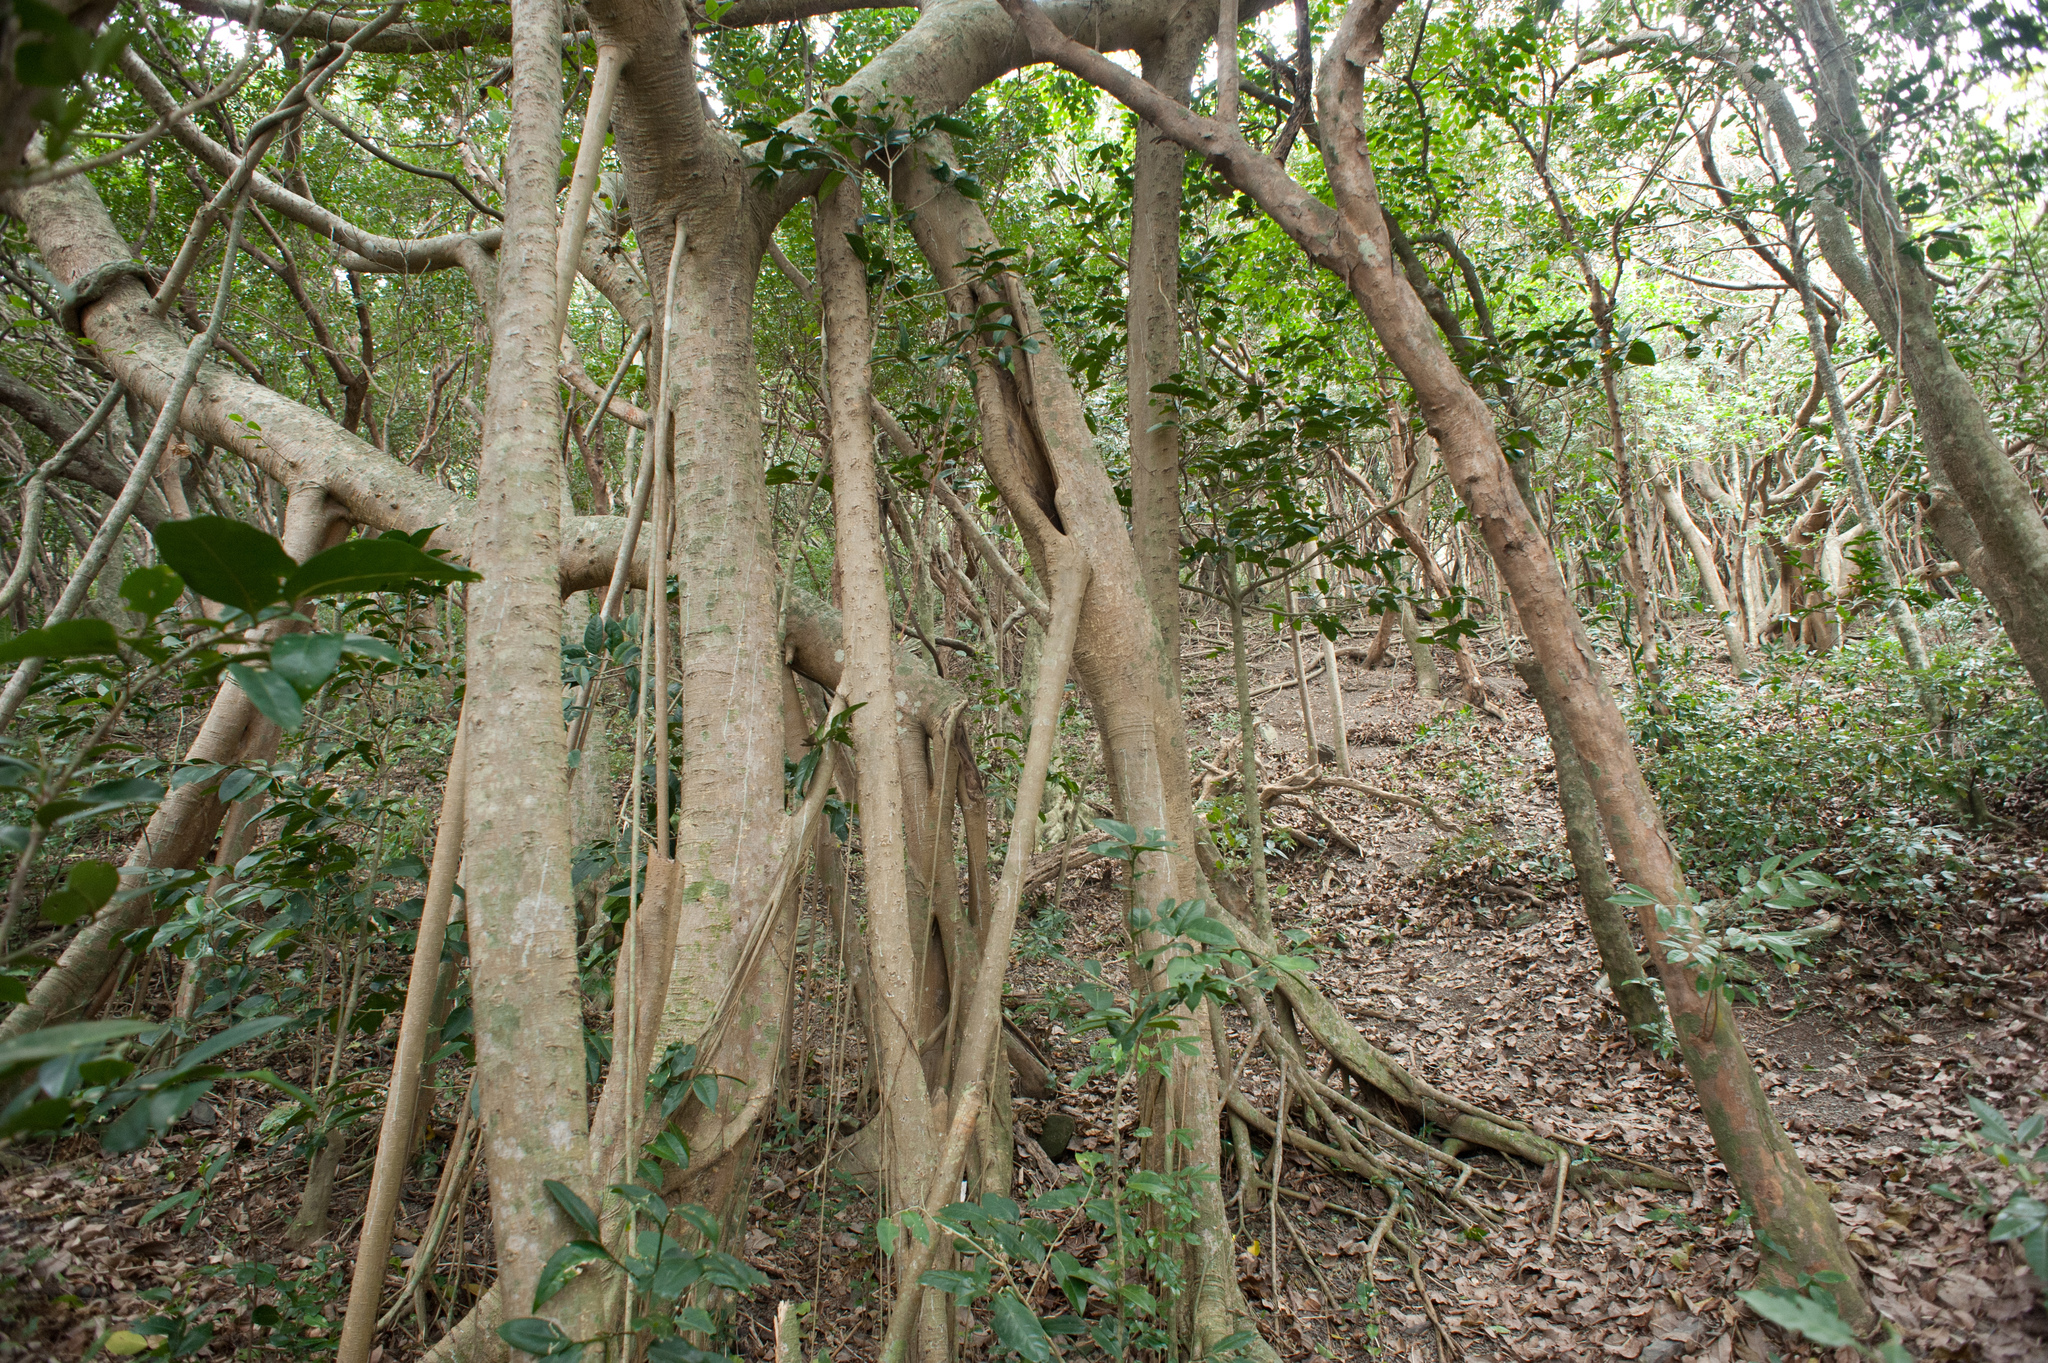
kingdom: Plantae
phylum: Tracheophyta
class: Magnoliopsida
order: Rosales
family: Moraceae
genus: Ficus
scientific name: Ficus benjamina
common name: Weeping fig
